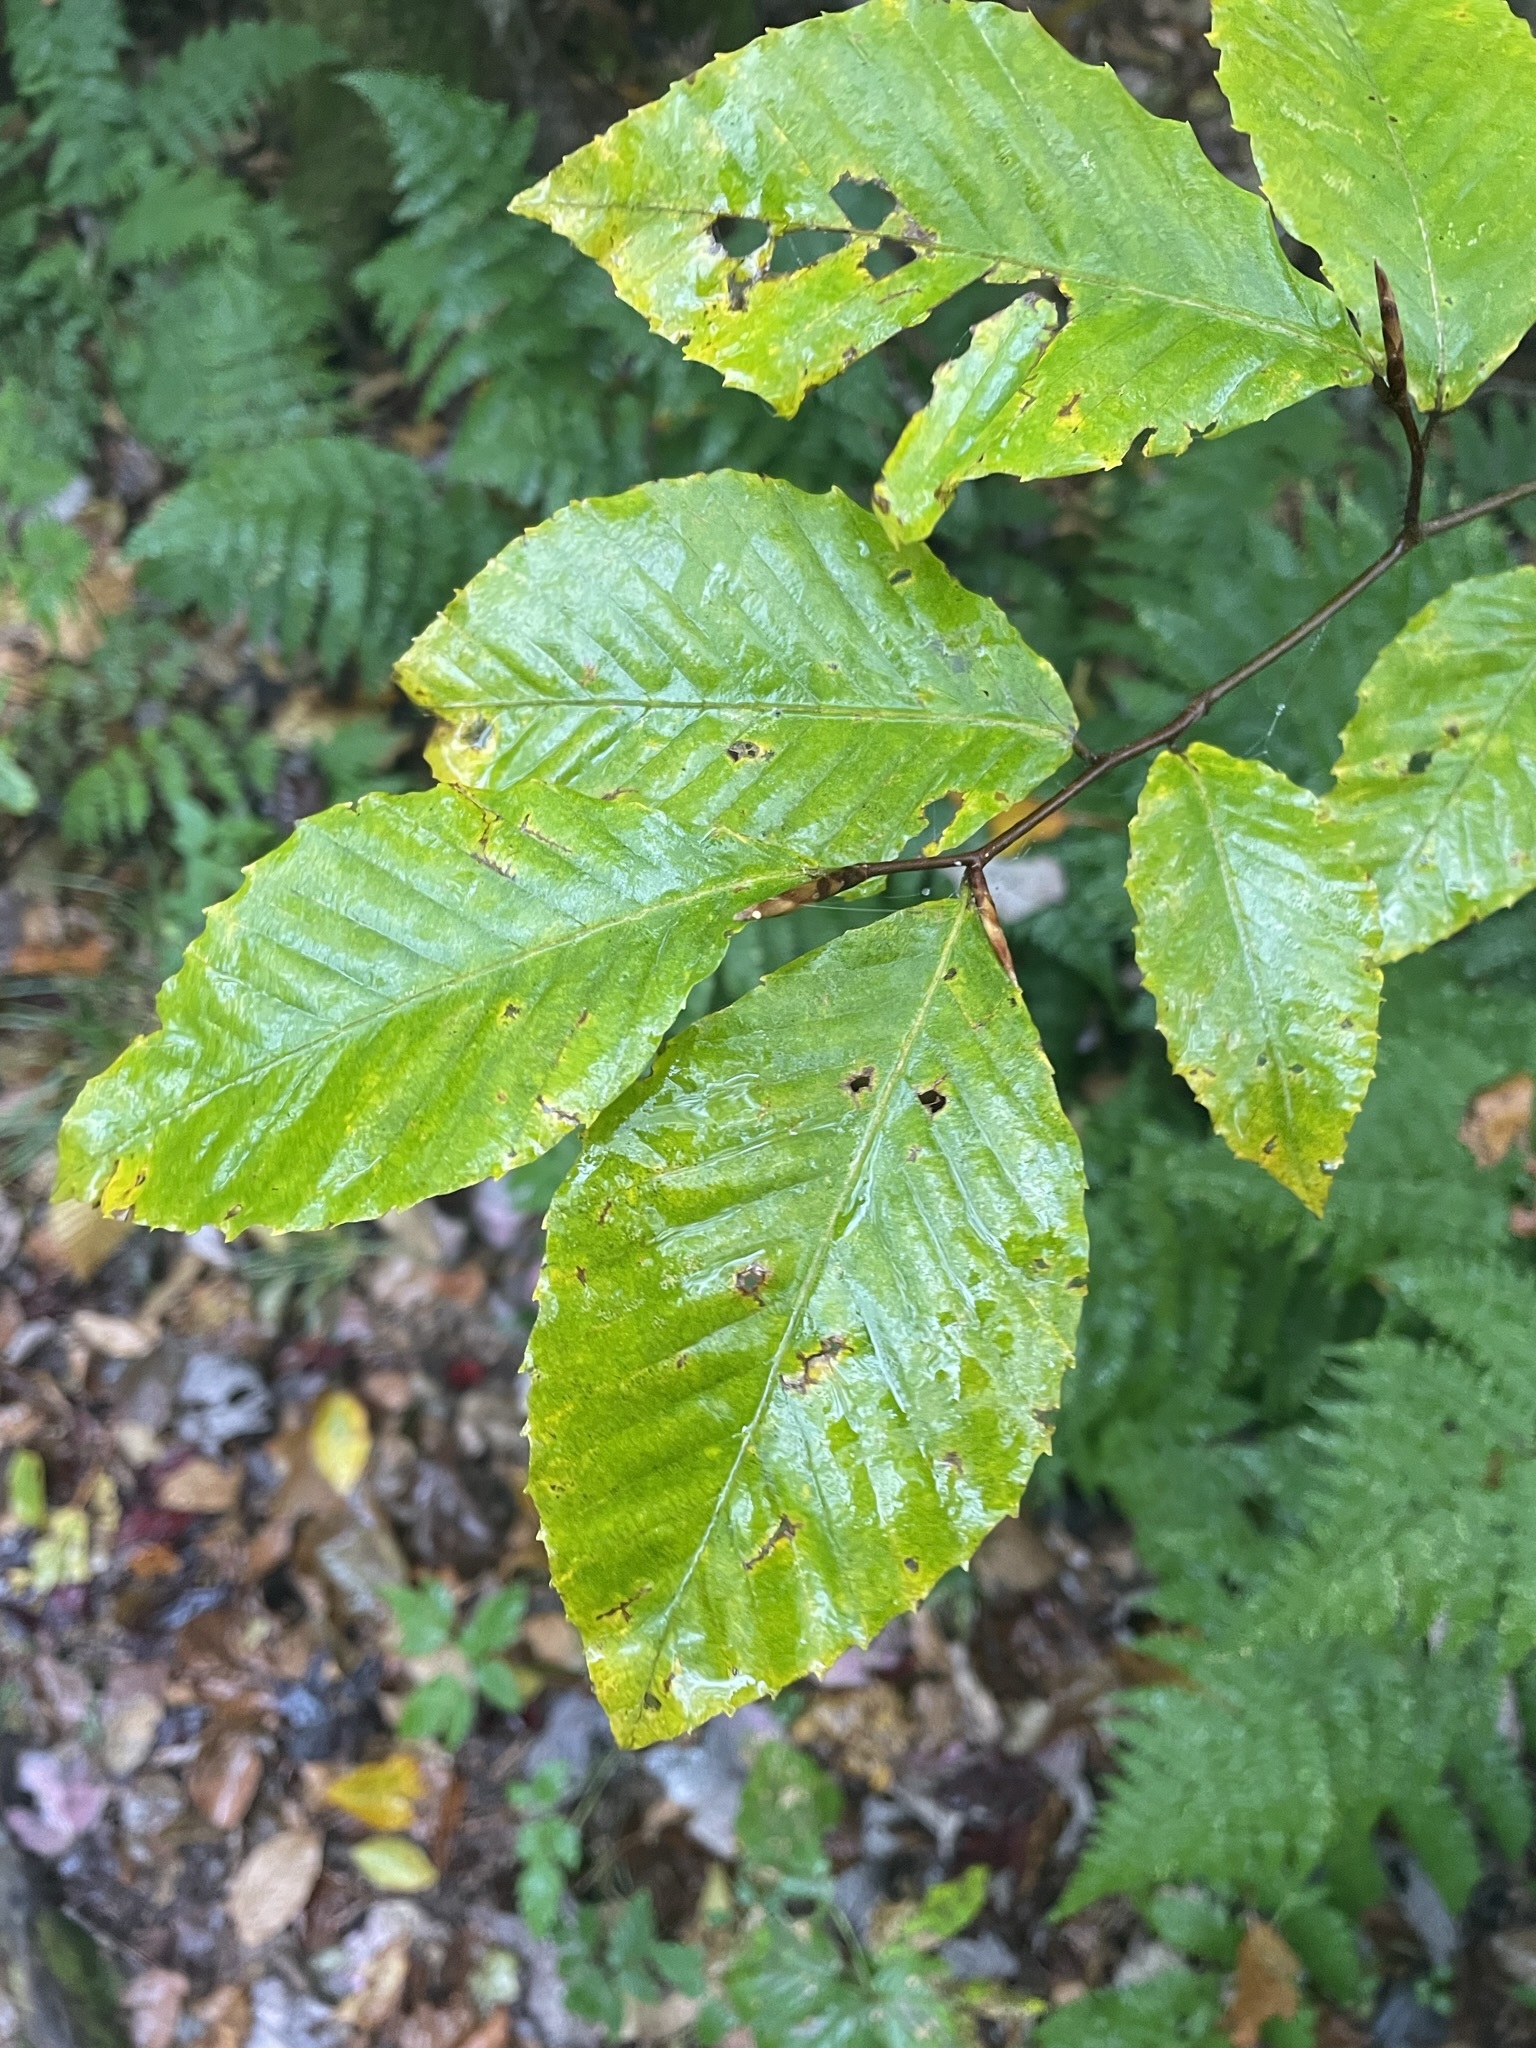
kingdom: Plantae
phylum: Tracheophyta
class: Magnoliopsida
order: Fagales
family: Fagaceae
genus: Fagus
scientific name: Fagus grandifolia
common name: American beech
